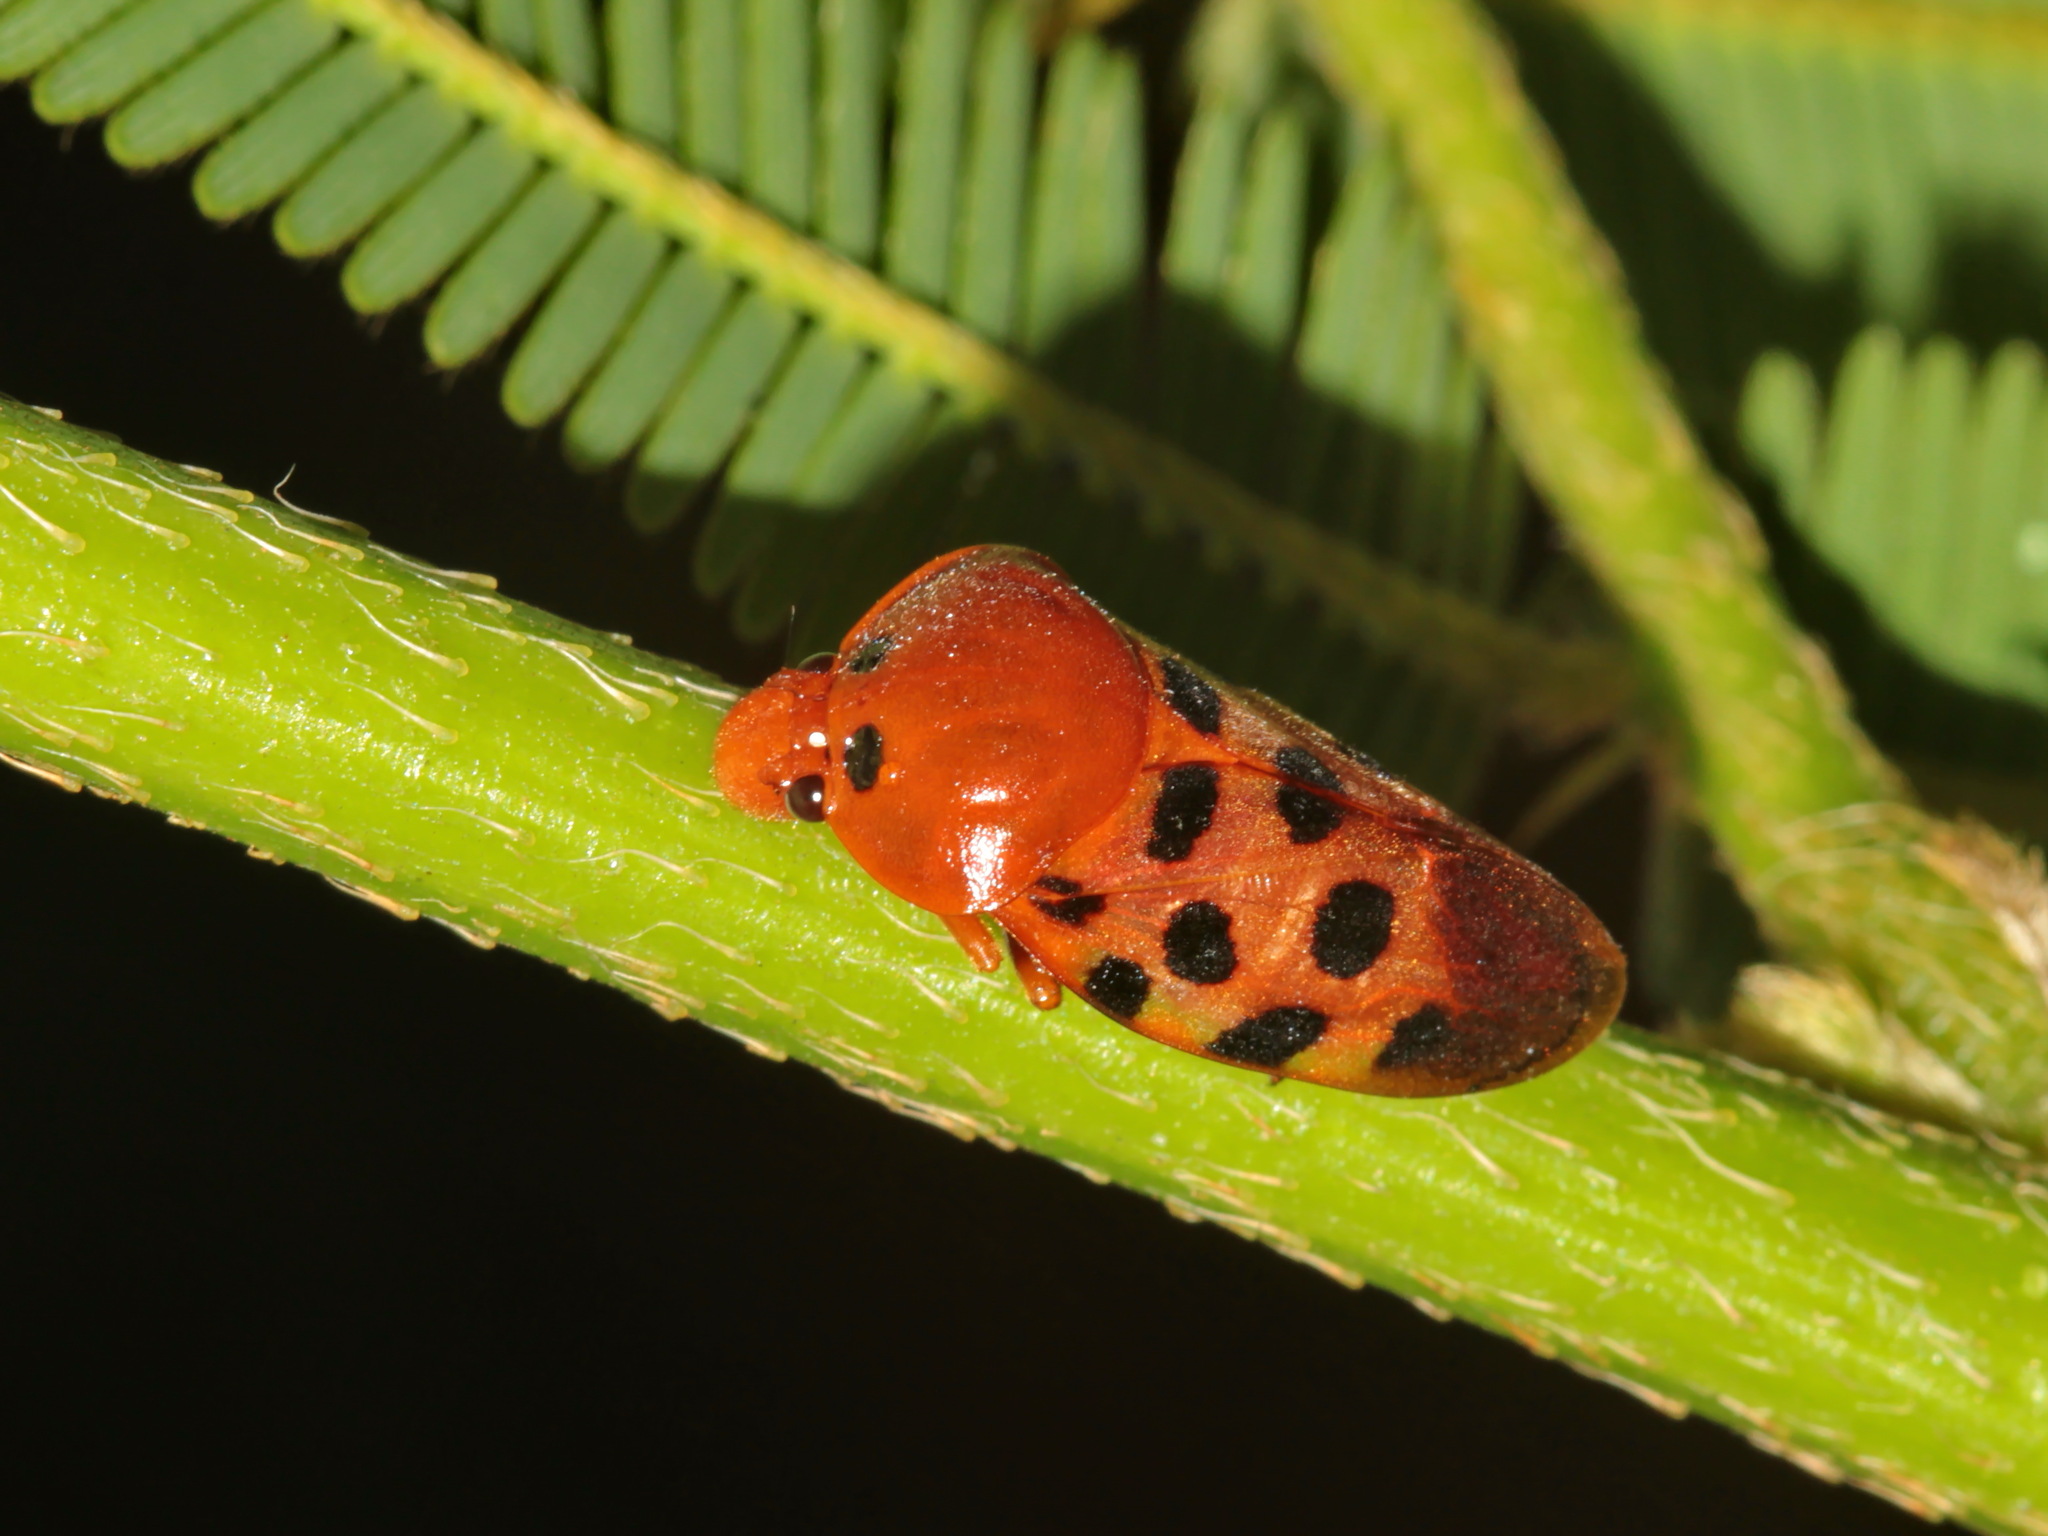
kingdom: Animalia
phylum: Arthropoda
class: Insecta
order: Hemiptera
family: Cercopidae
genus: Cosmoscarta
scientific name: Cosmoscarta septempunctata
